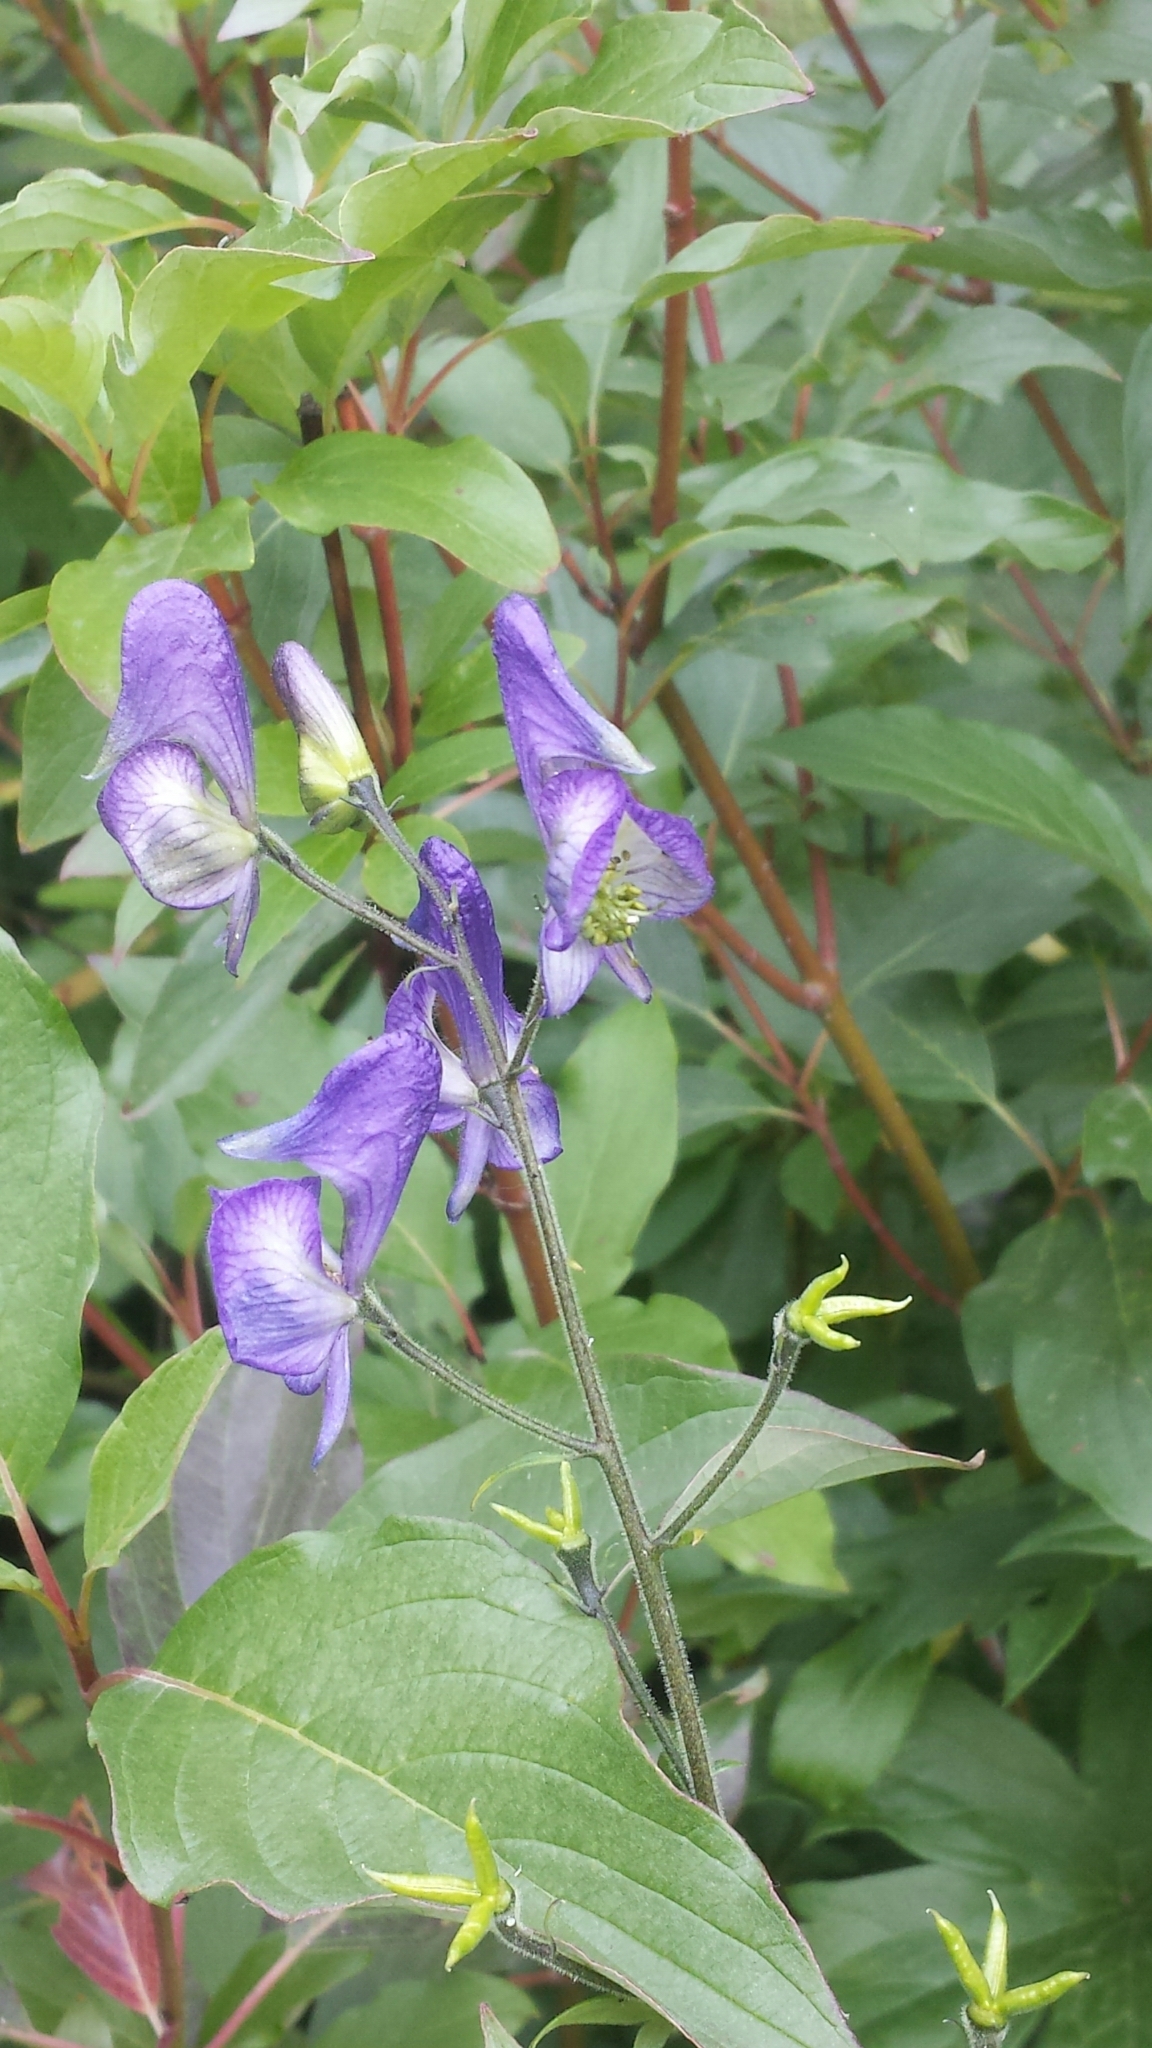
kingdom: Plantae
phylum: Tracheophyta
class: Magnoliopsida
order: Ranunculales
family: Ranunculaceae
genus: Aconitum
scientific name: Aconitum columbianum
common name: Columbia aconite
